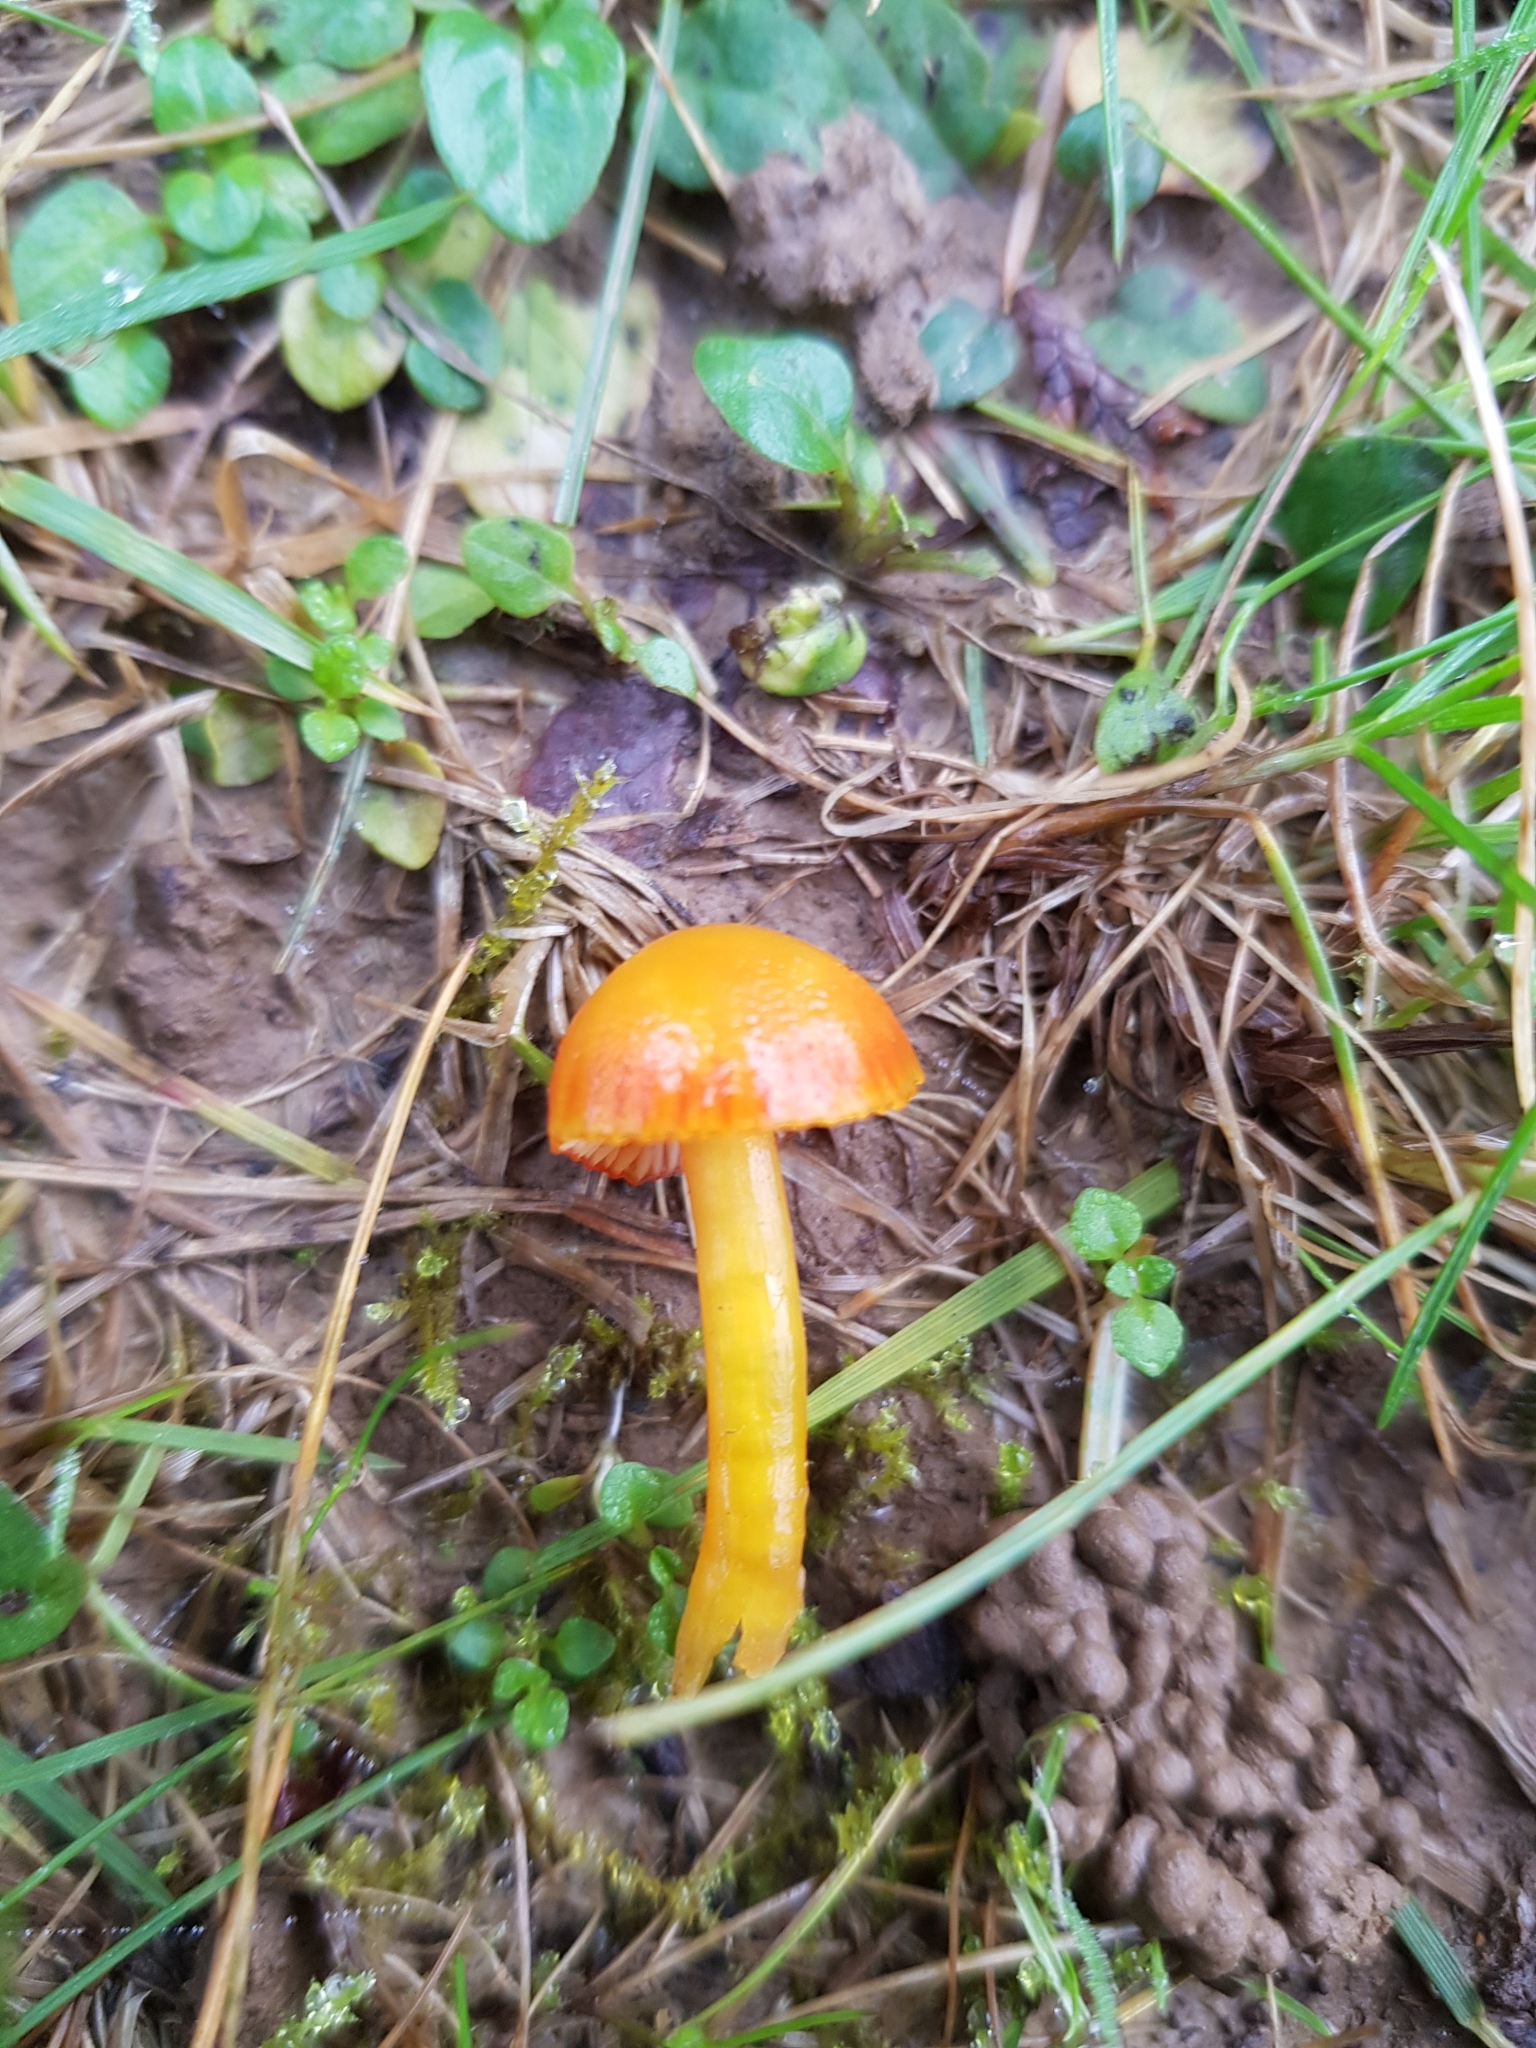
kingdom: Fungi
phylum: Basidiomycota
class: Agaricomycetes
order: Agaricales
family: Hygrophoraceae
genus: Hygrocybe
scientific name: Hygrocybe insipida
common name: Spangle waxcap
